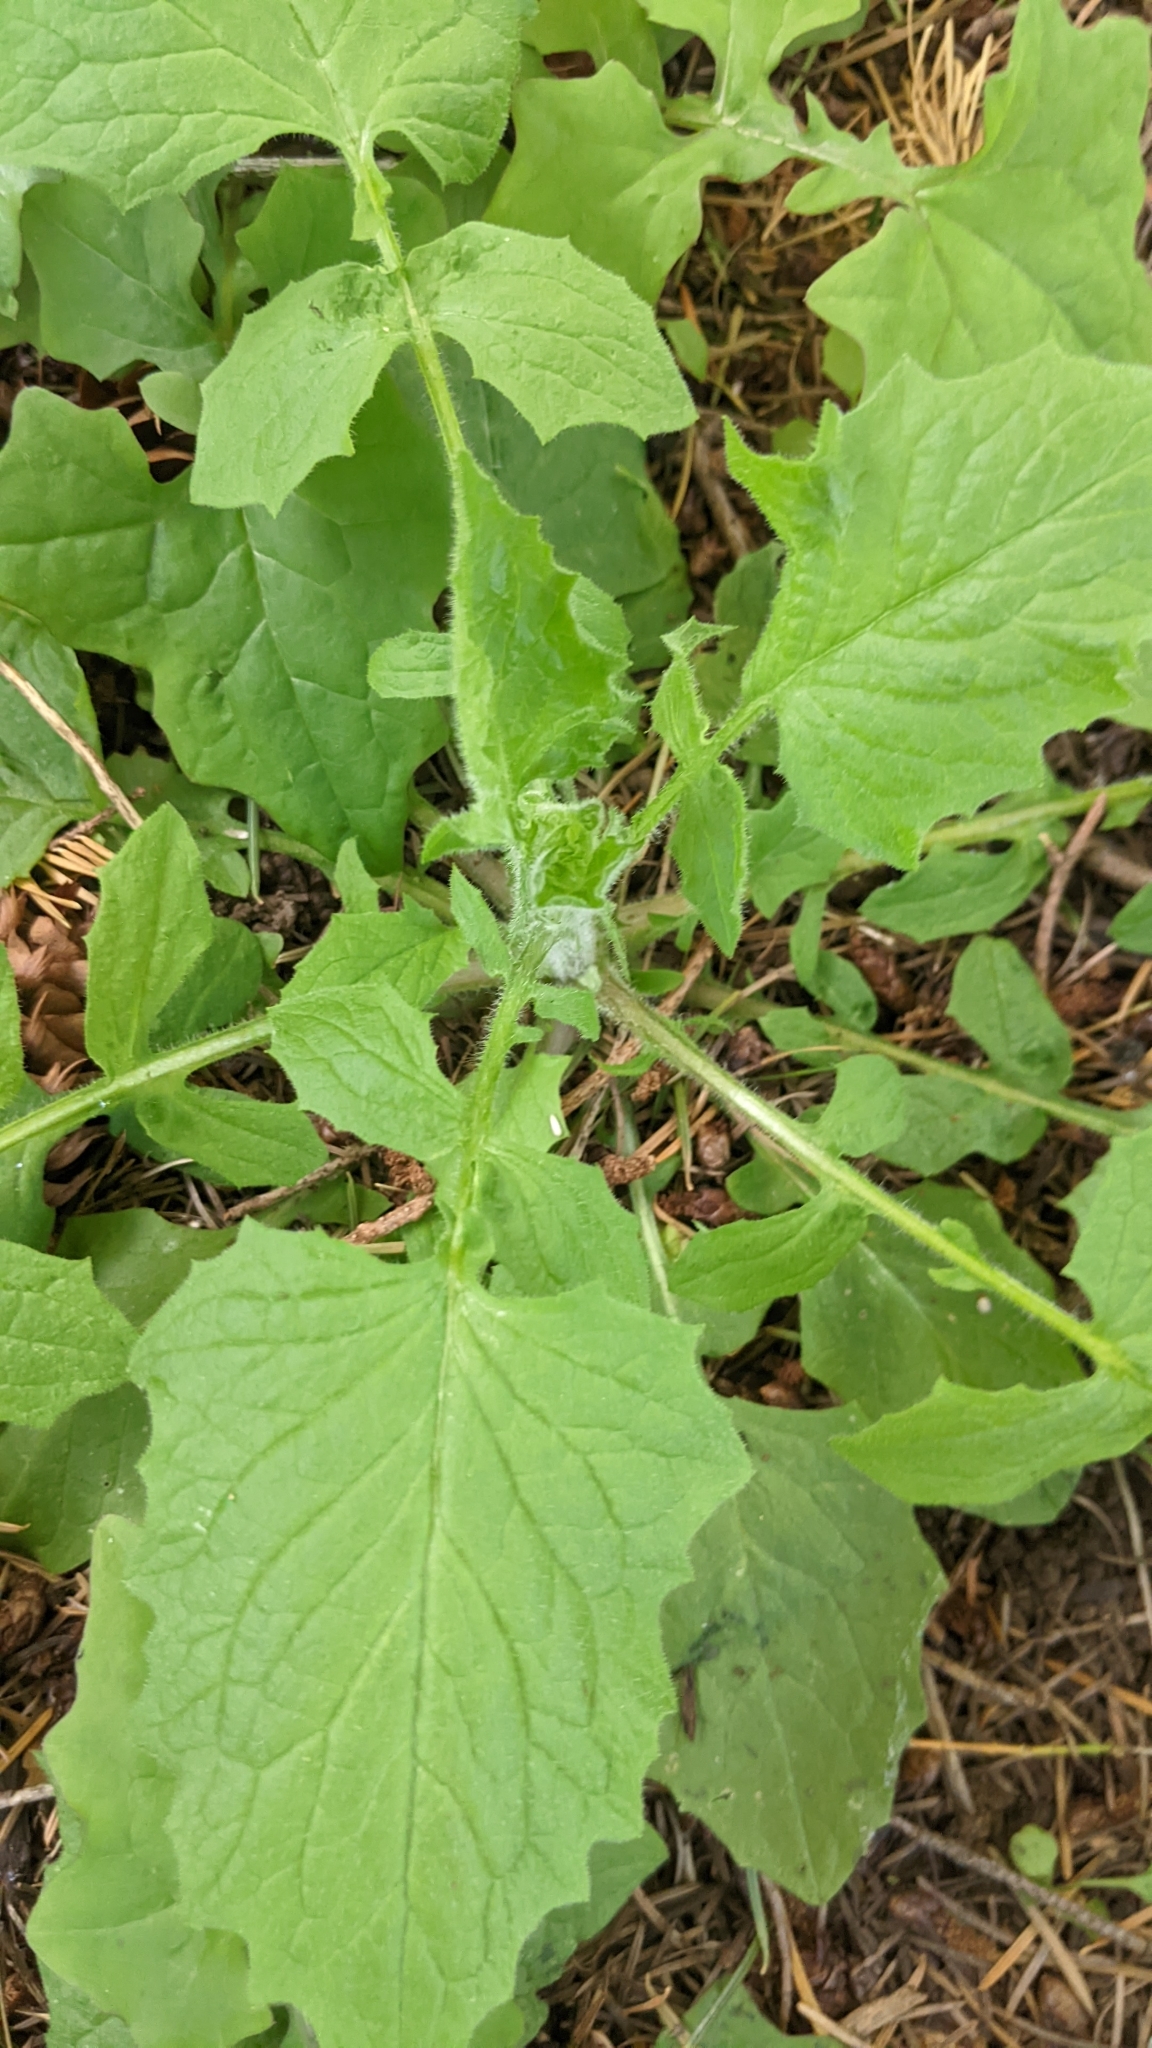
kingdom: Plantae
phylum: Tracheophyta
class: Magnoliopsida
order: Asterales
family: Asteraceae
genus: Lapsana
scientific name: Lapsana communis
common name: Nipplewort
